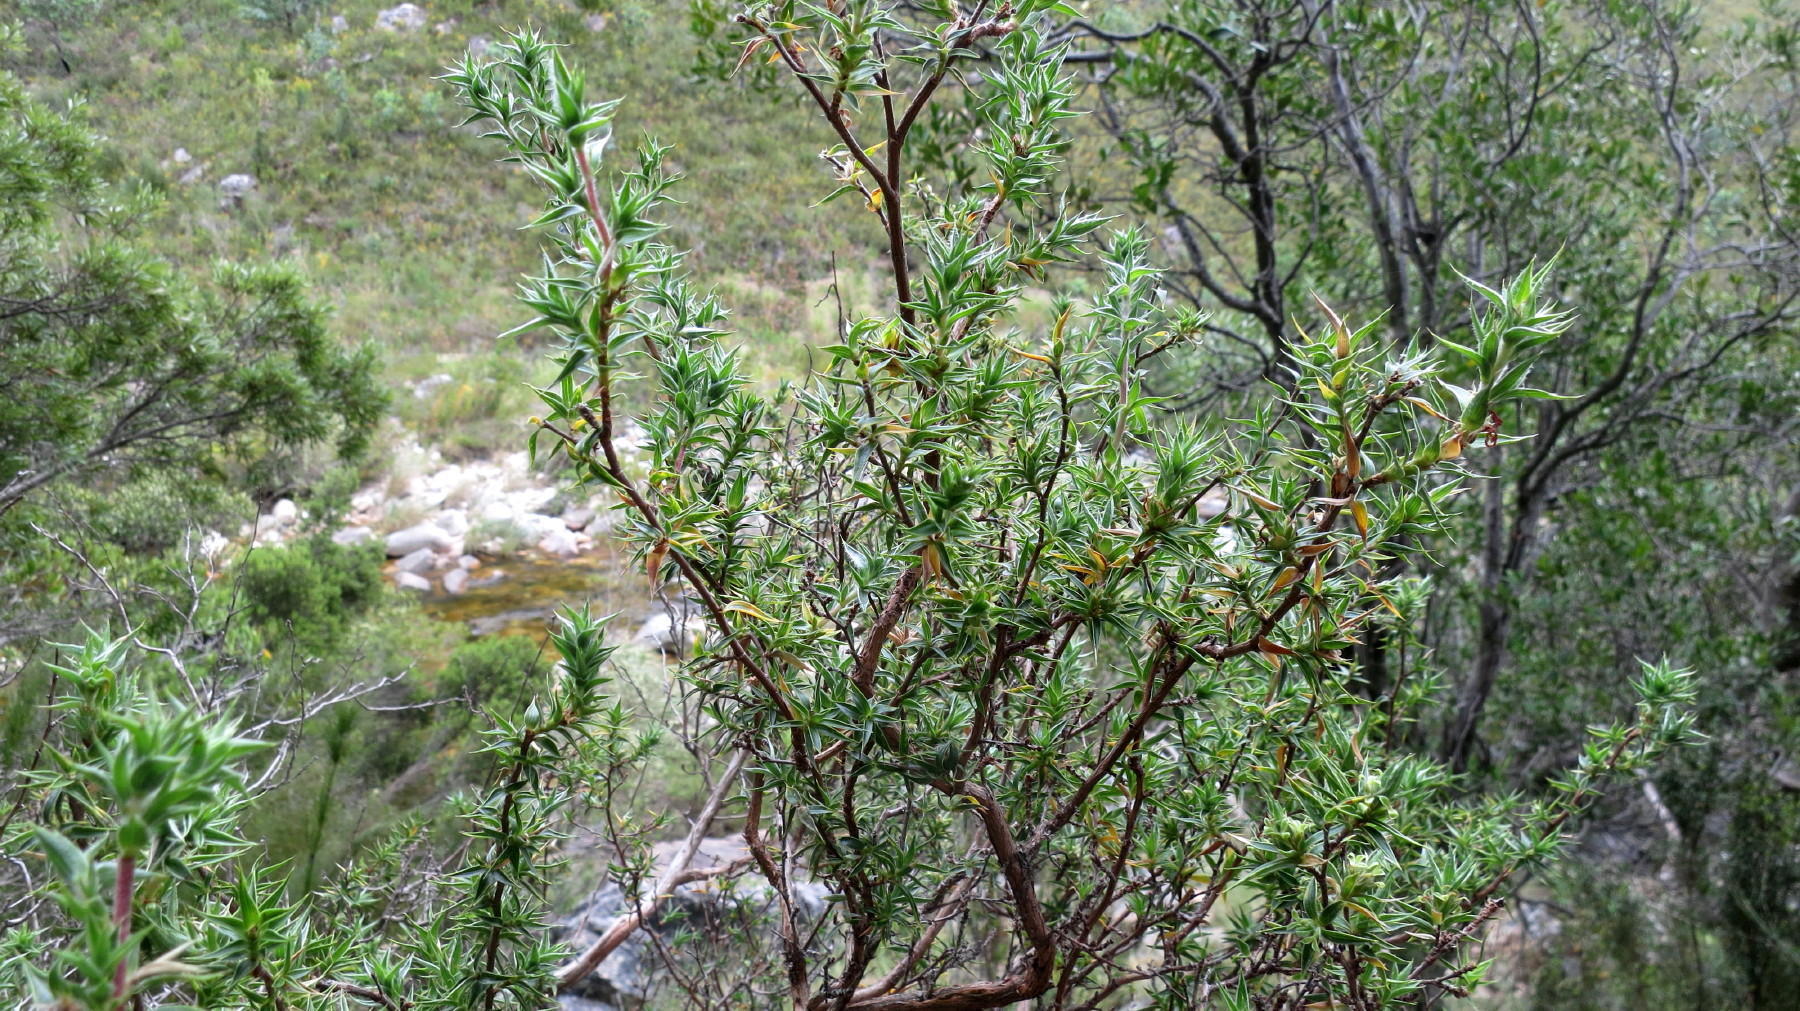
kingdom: Plantae
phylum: Tracheophyta
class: Magnoliopsida
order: Rosales
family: Rosaceae
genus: Cliffortia
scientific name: Cliffortia ruscifolia
